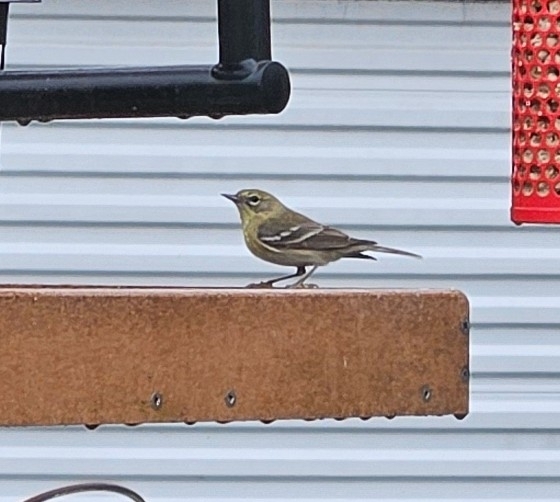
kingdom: Animalia
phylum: Chordata
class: Aves
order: Passeriformes
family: Parulidae
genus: Setophaga
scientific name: Setophaga pinus
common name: Pine warbler
